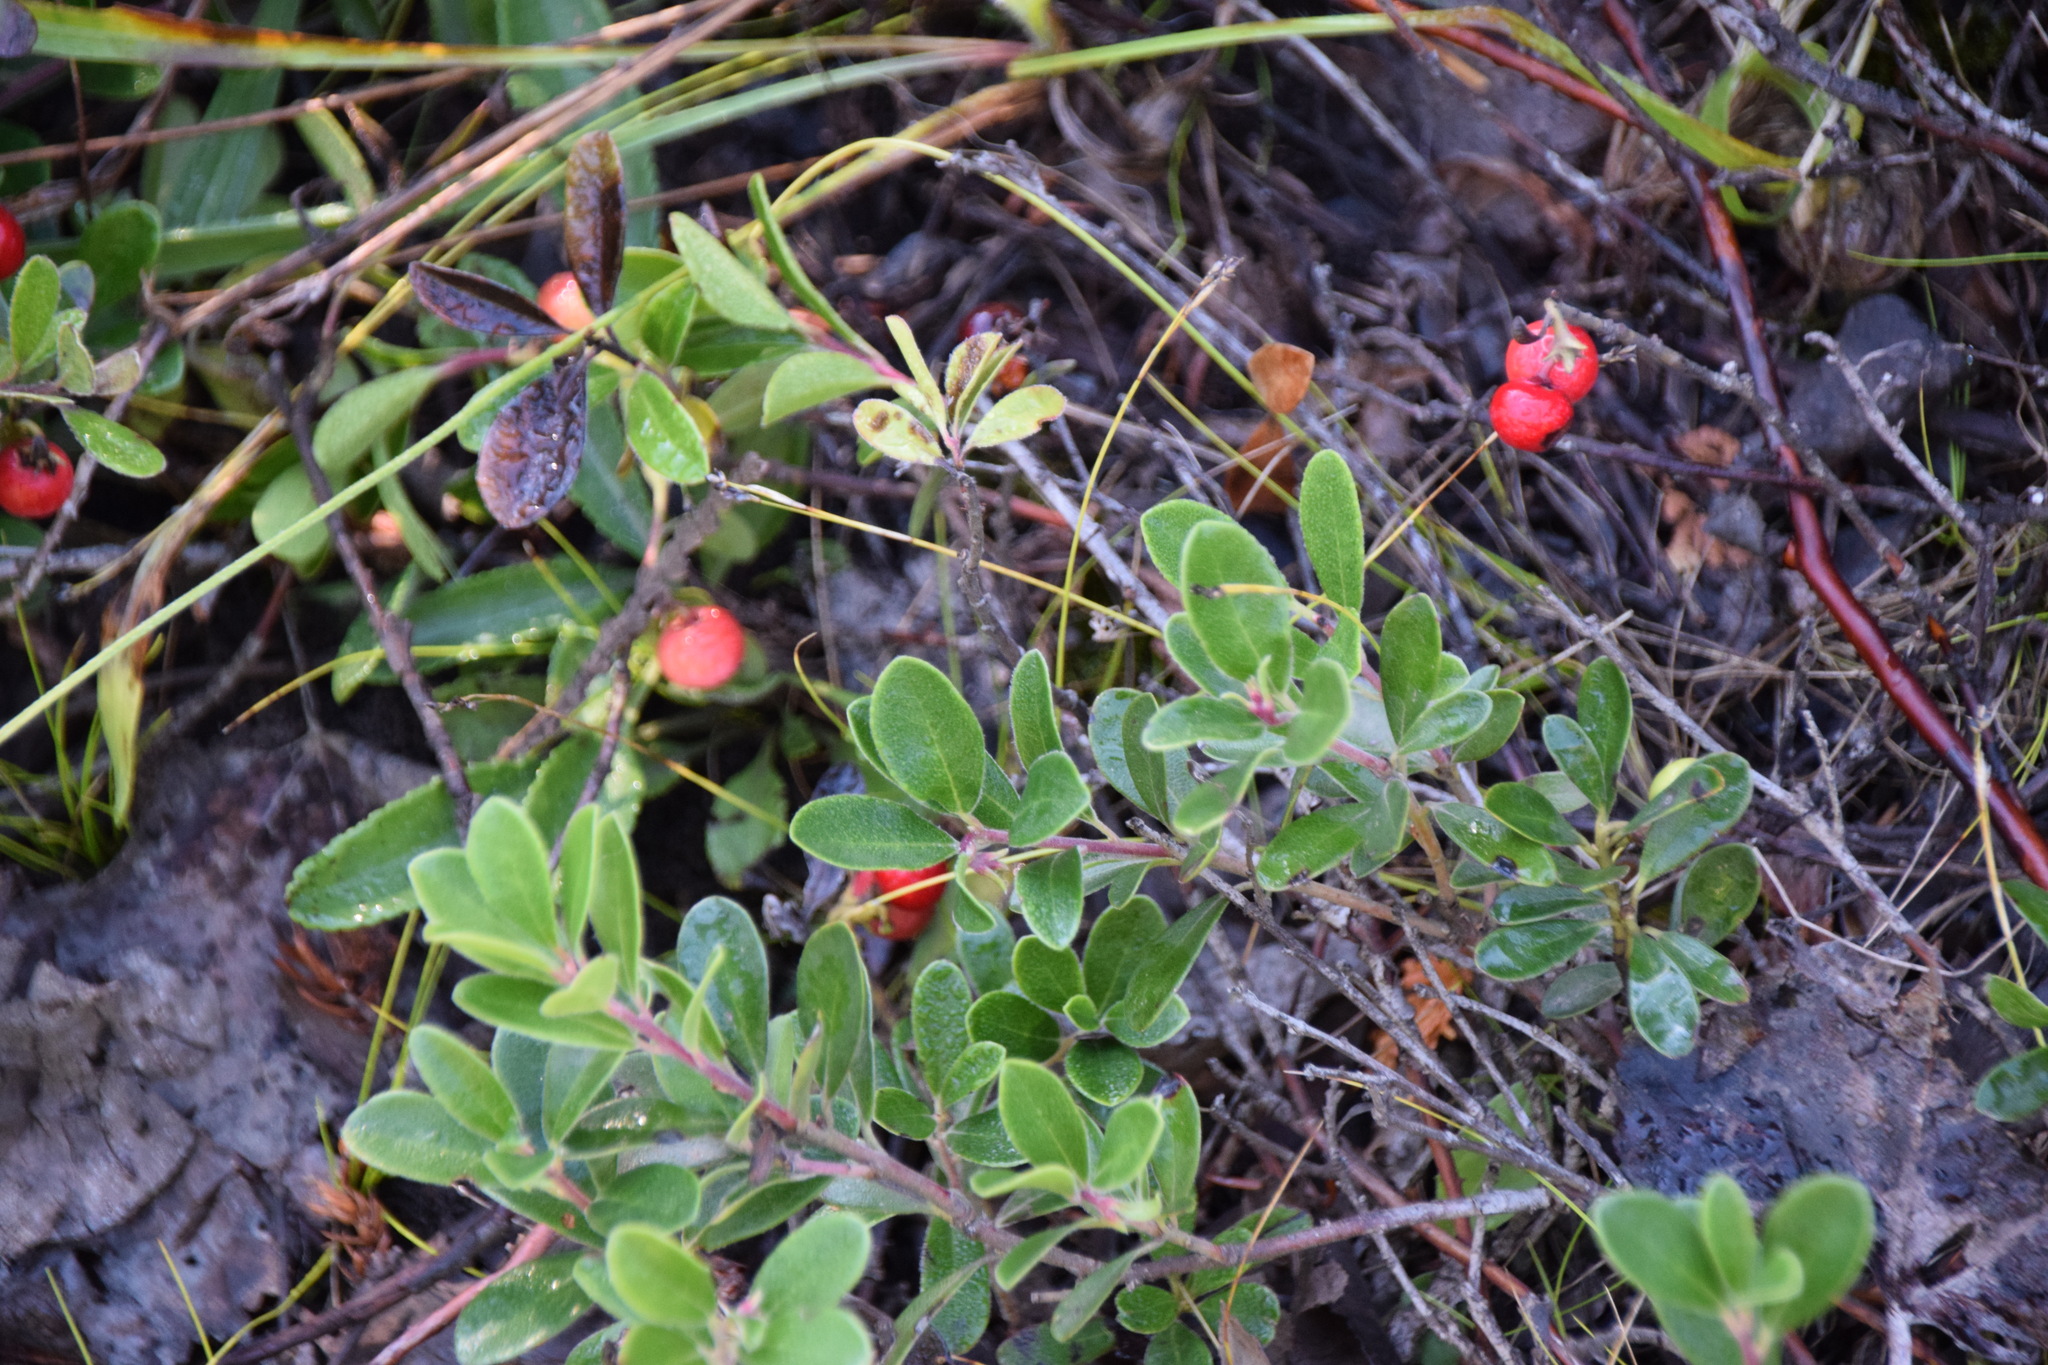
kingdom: Plantae
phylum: Tracheophyta
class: Magnoliopsida
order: Ericales
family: Ericaceae
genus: Arctostaphylos
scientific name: Arctostaphylos uva-ursi
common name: Bearberry
